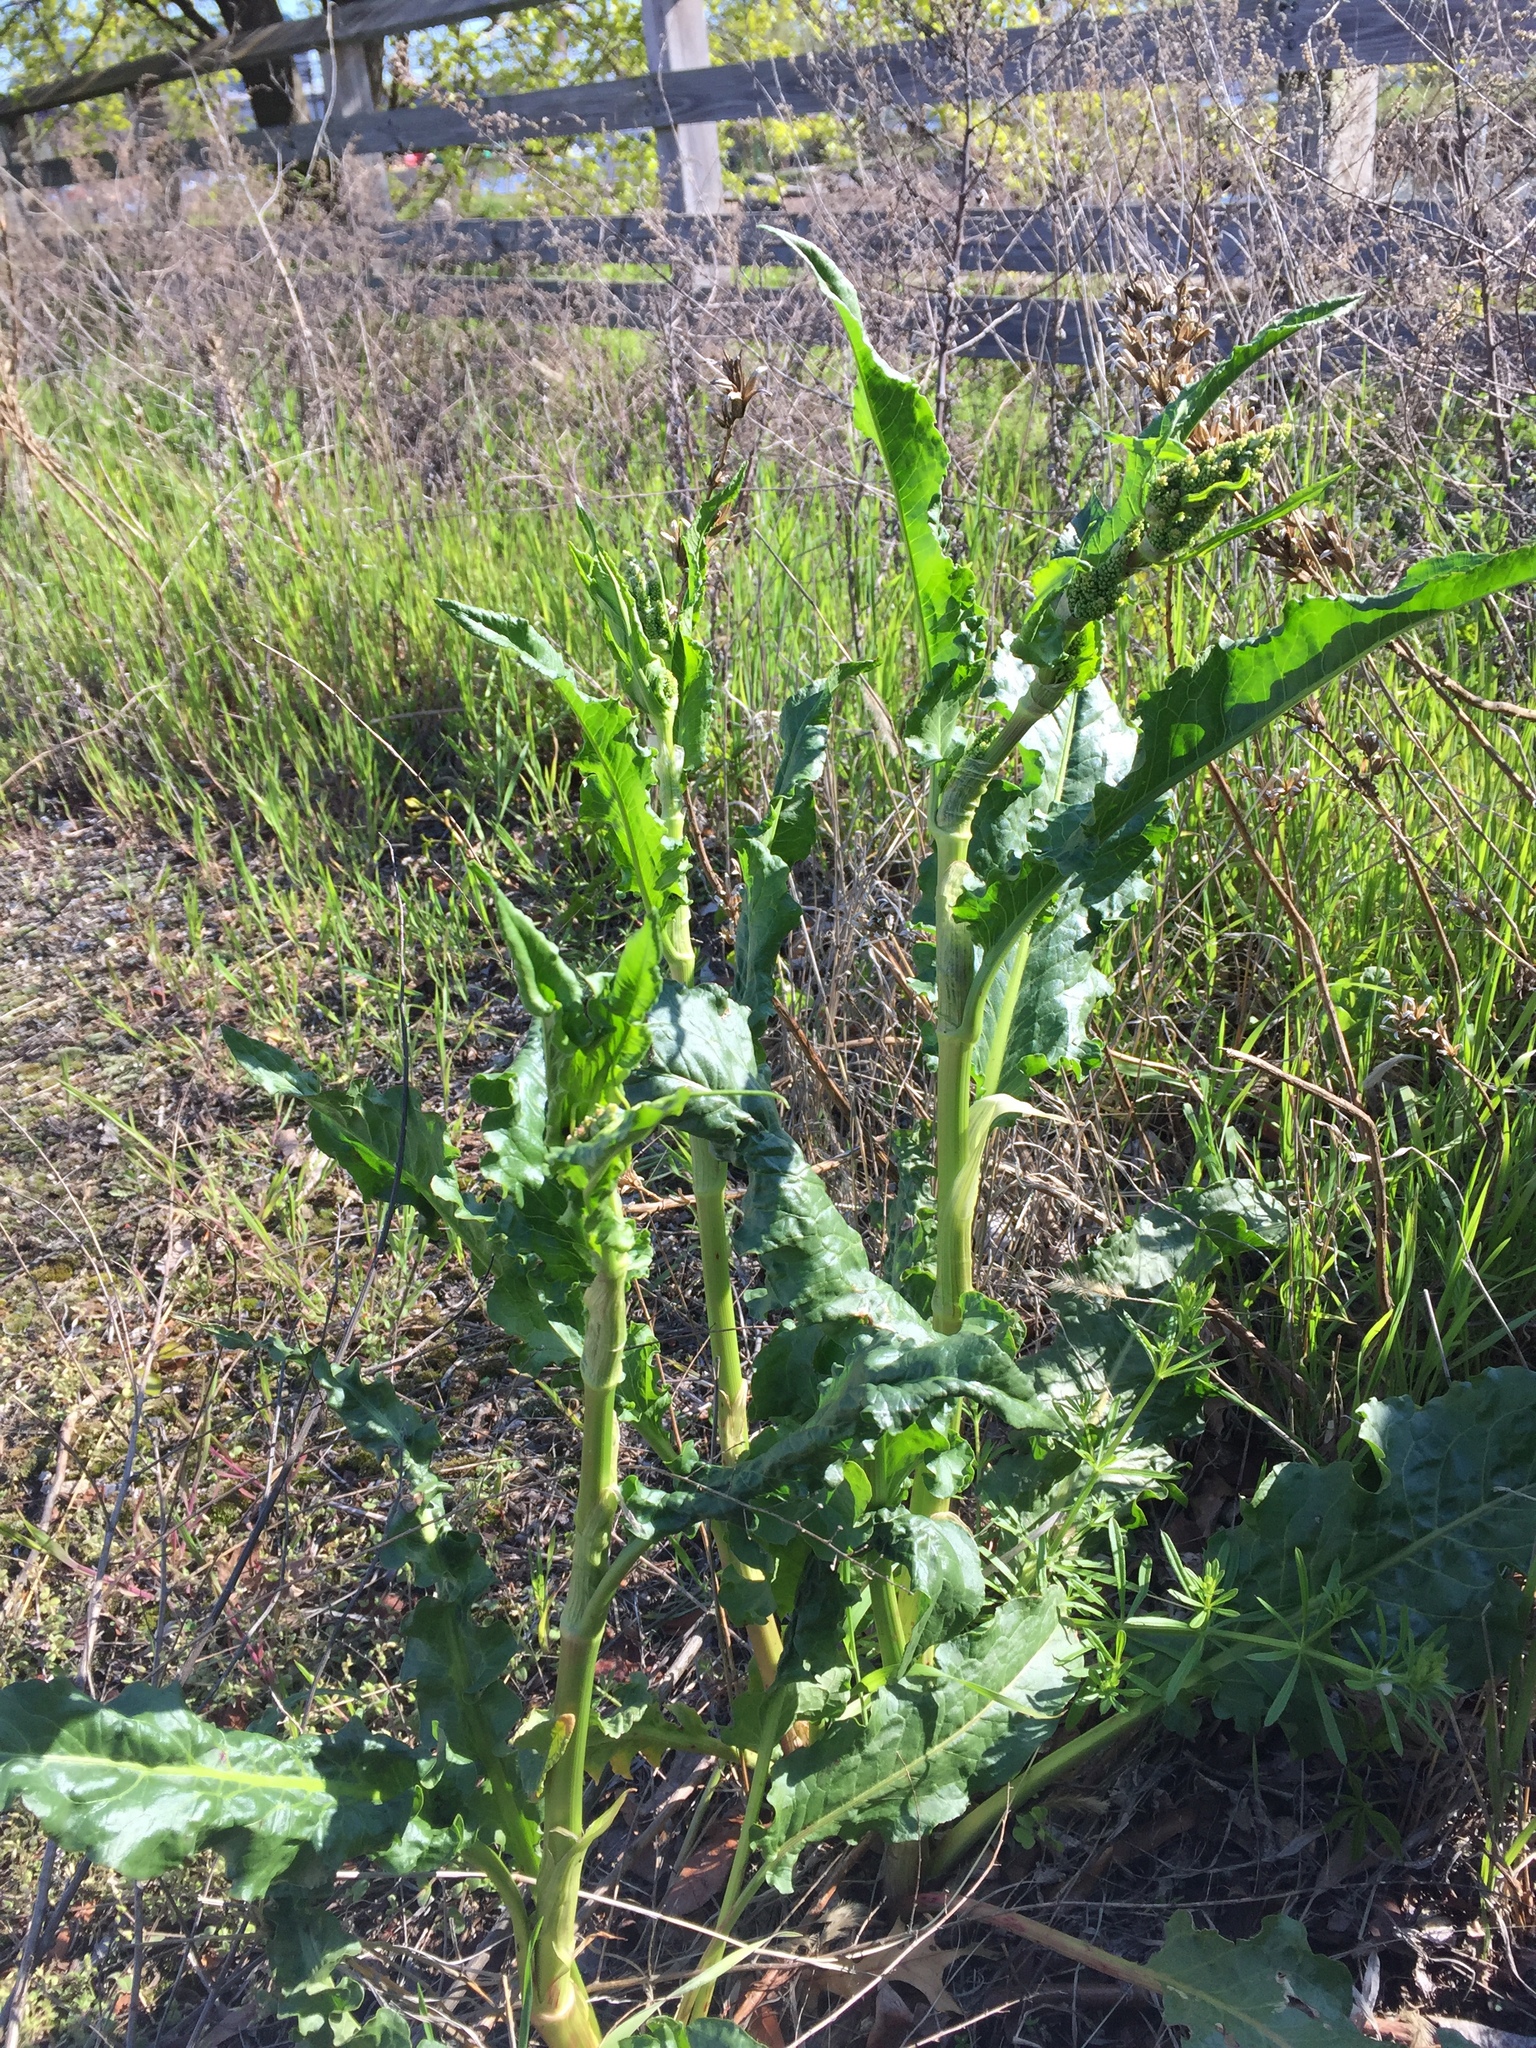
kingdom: Plantae
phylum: Tracheophyta
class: Magnoliopsida
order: Caryophyllales
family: Polygonaceae
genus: Rumex
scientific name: Rumex crispus
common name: Curled dock
